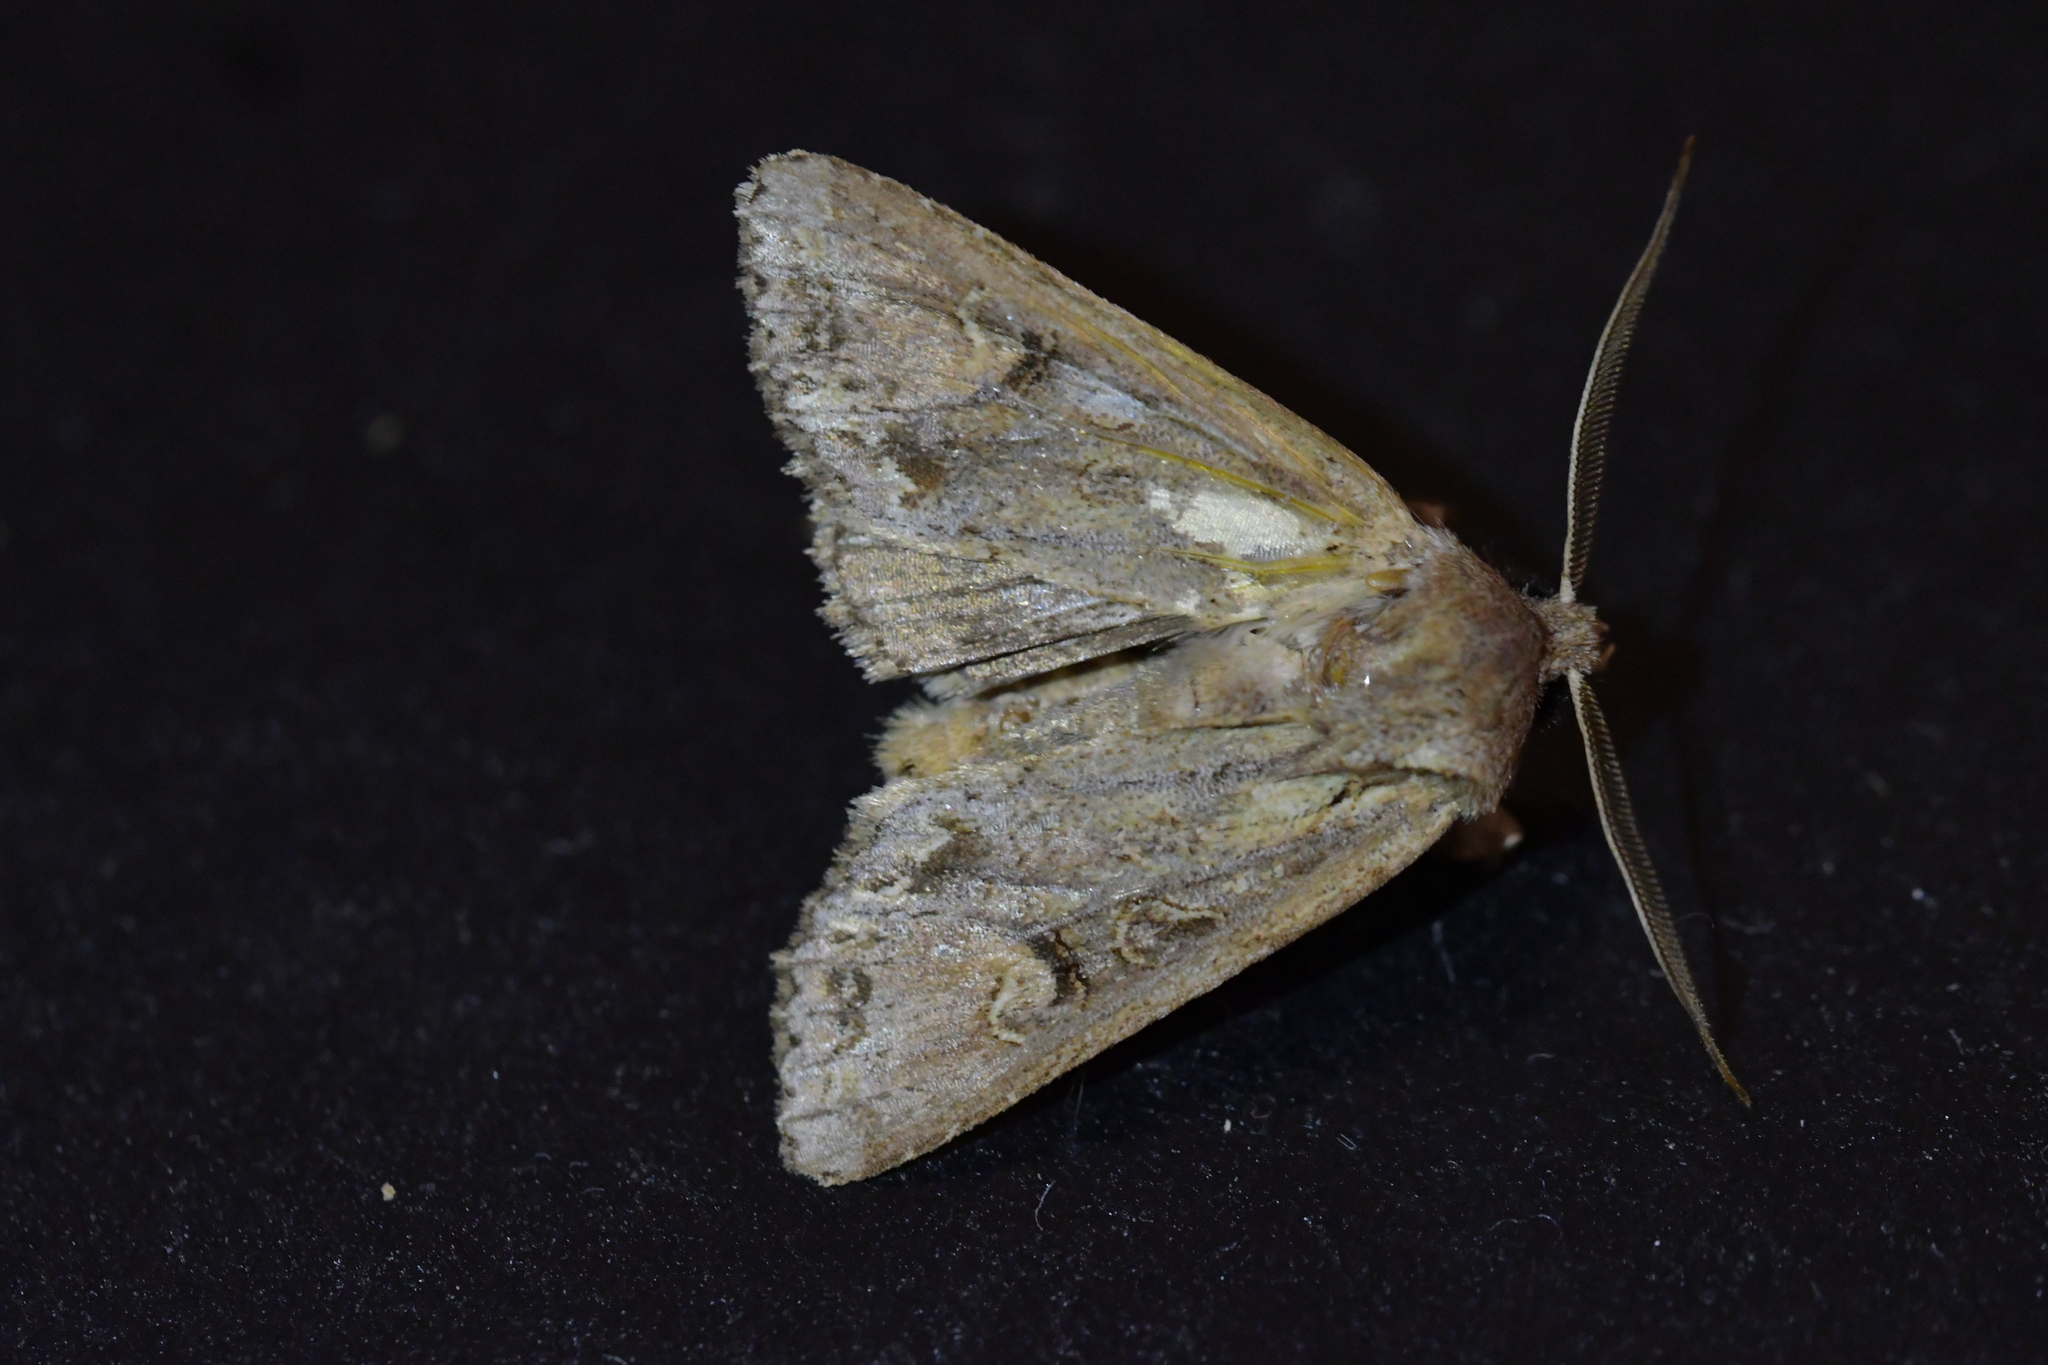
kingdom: Animalia
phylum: Arthropoda
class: Insecta
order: Lepidoptera
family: Noctuidae
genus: Ichneutica
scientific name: Ichneutica
